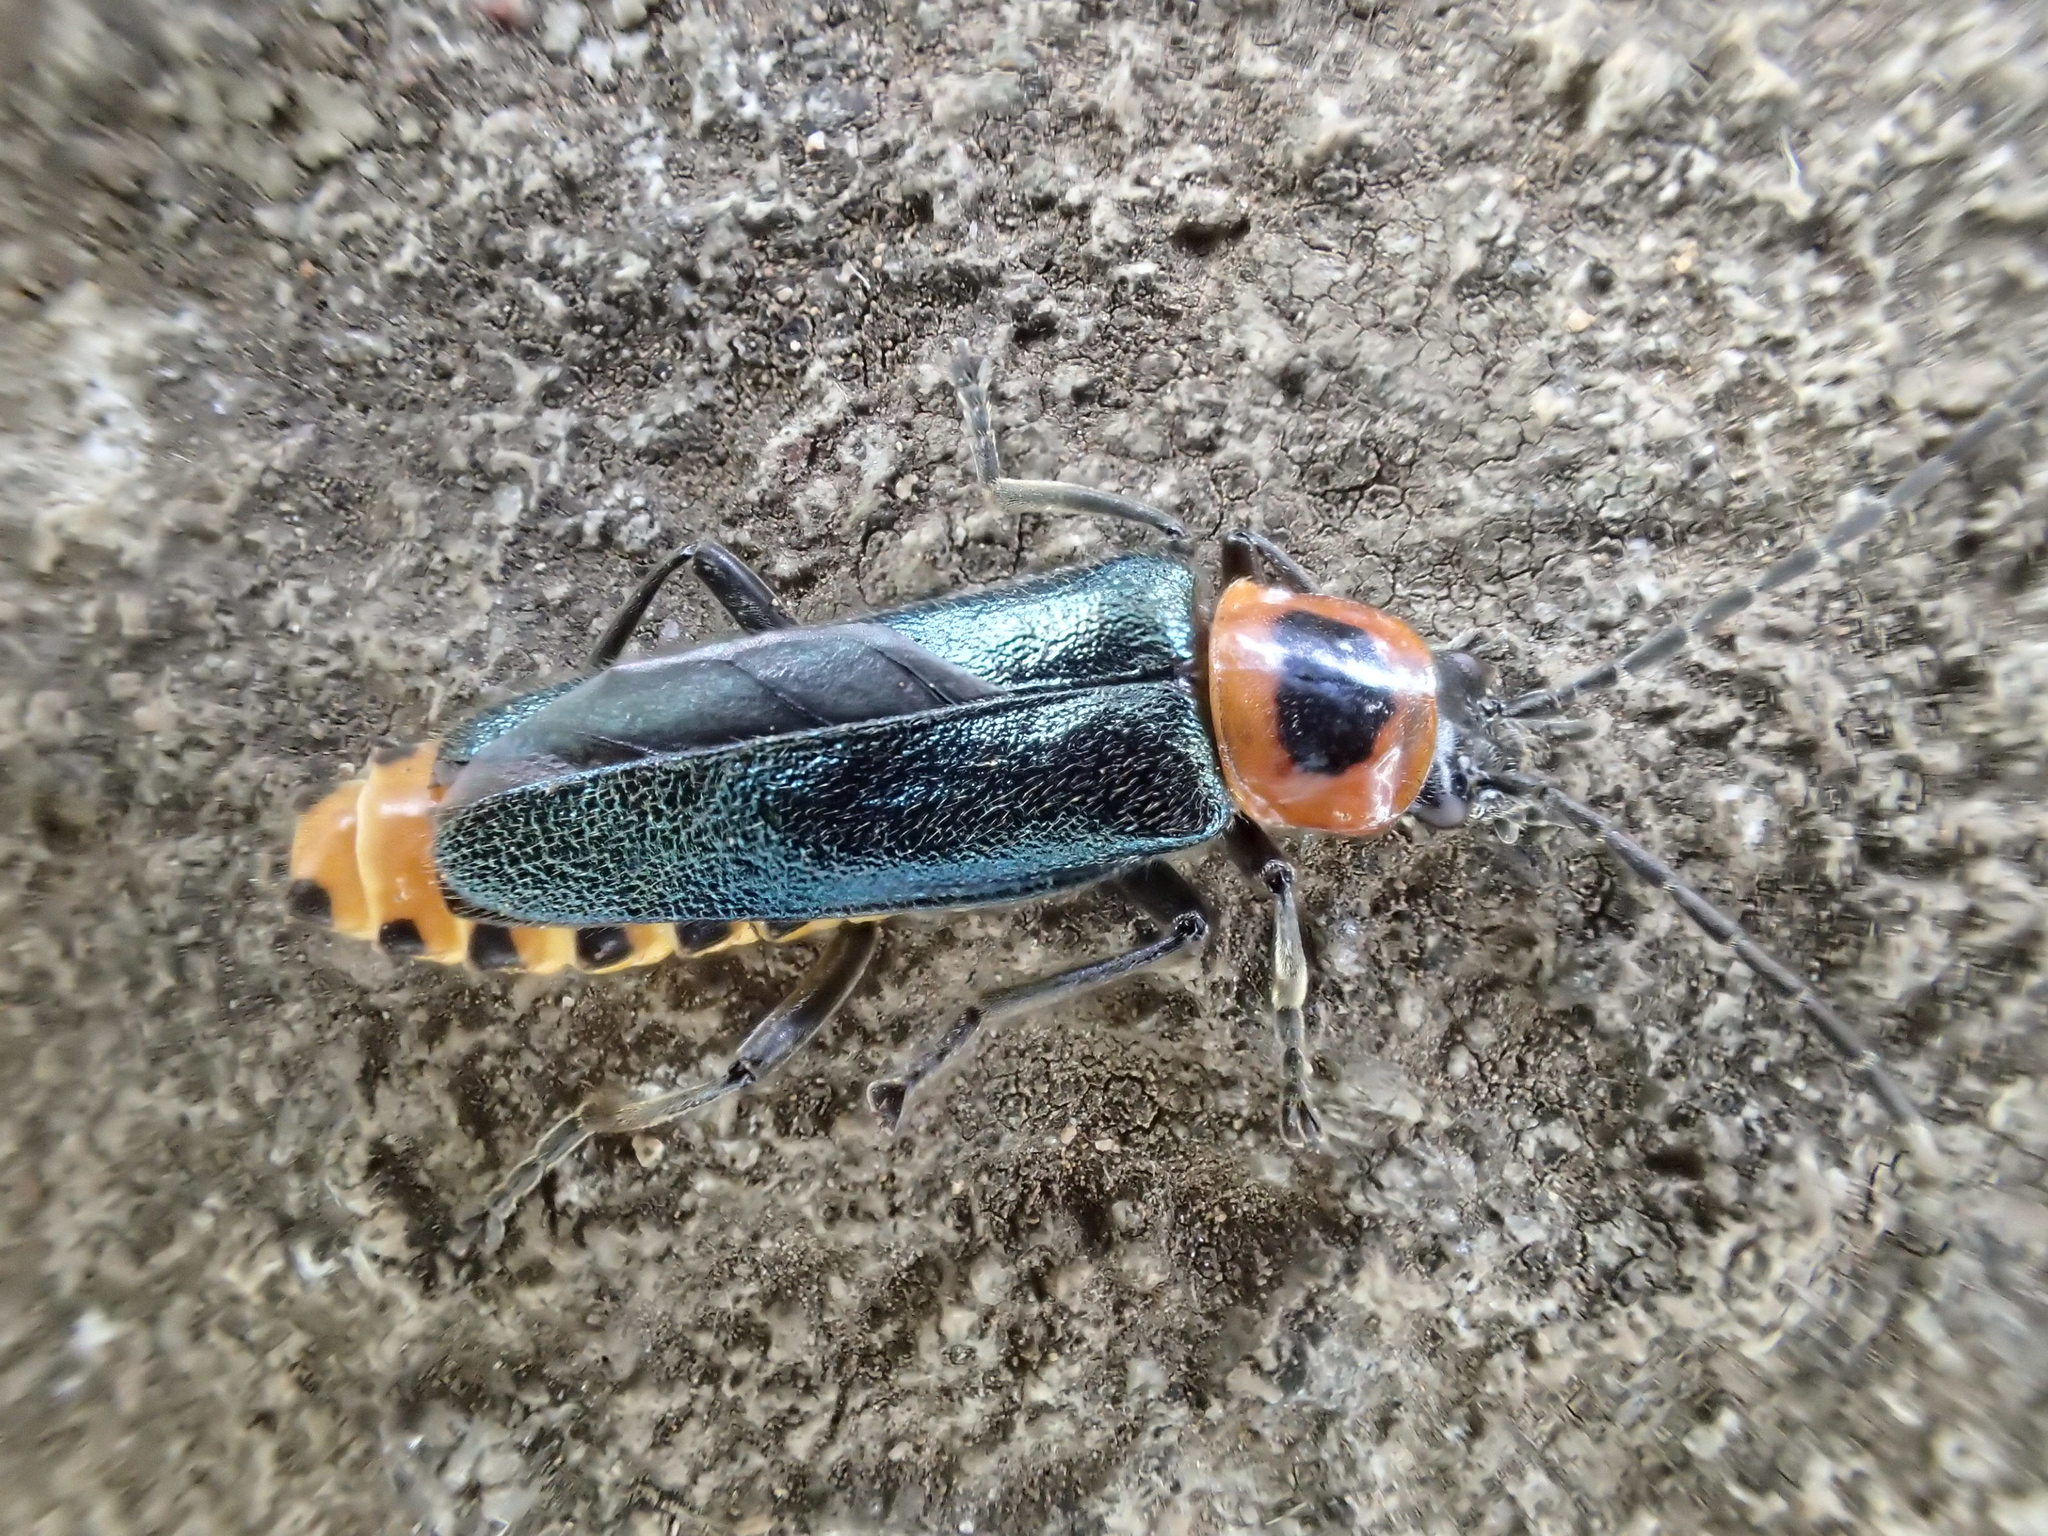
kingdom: Animalia
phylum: Arthropoda
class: Insecta
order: Coleoptera
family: Cantharidae
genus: Chauliognathus
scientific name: Chauliognathus
